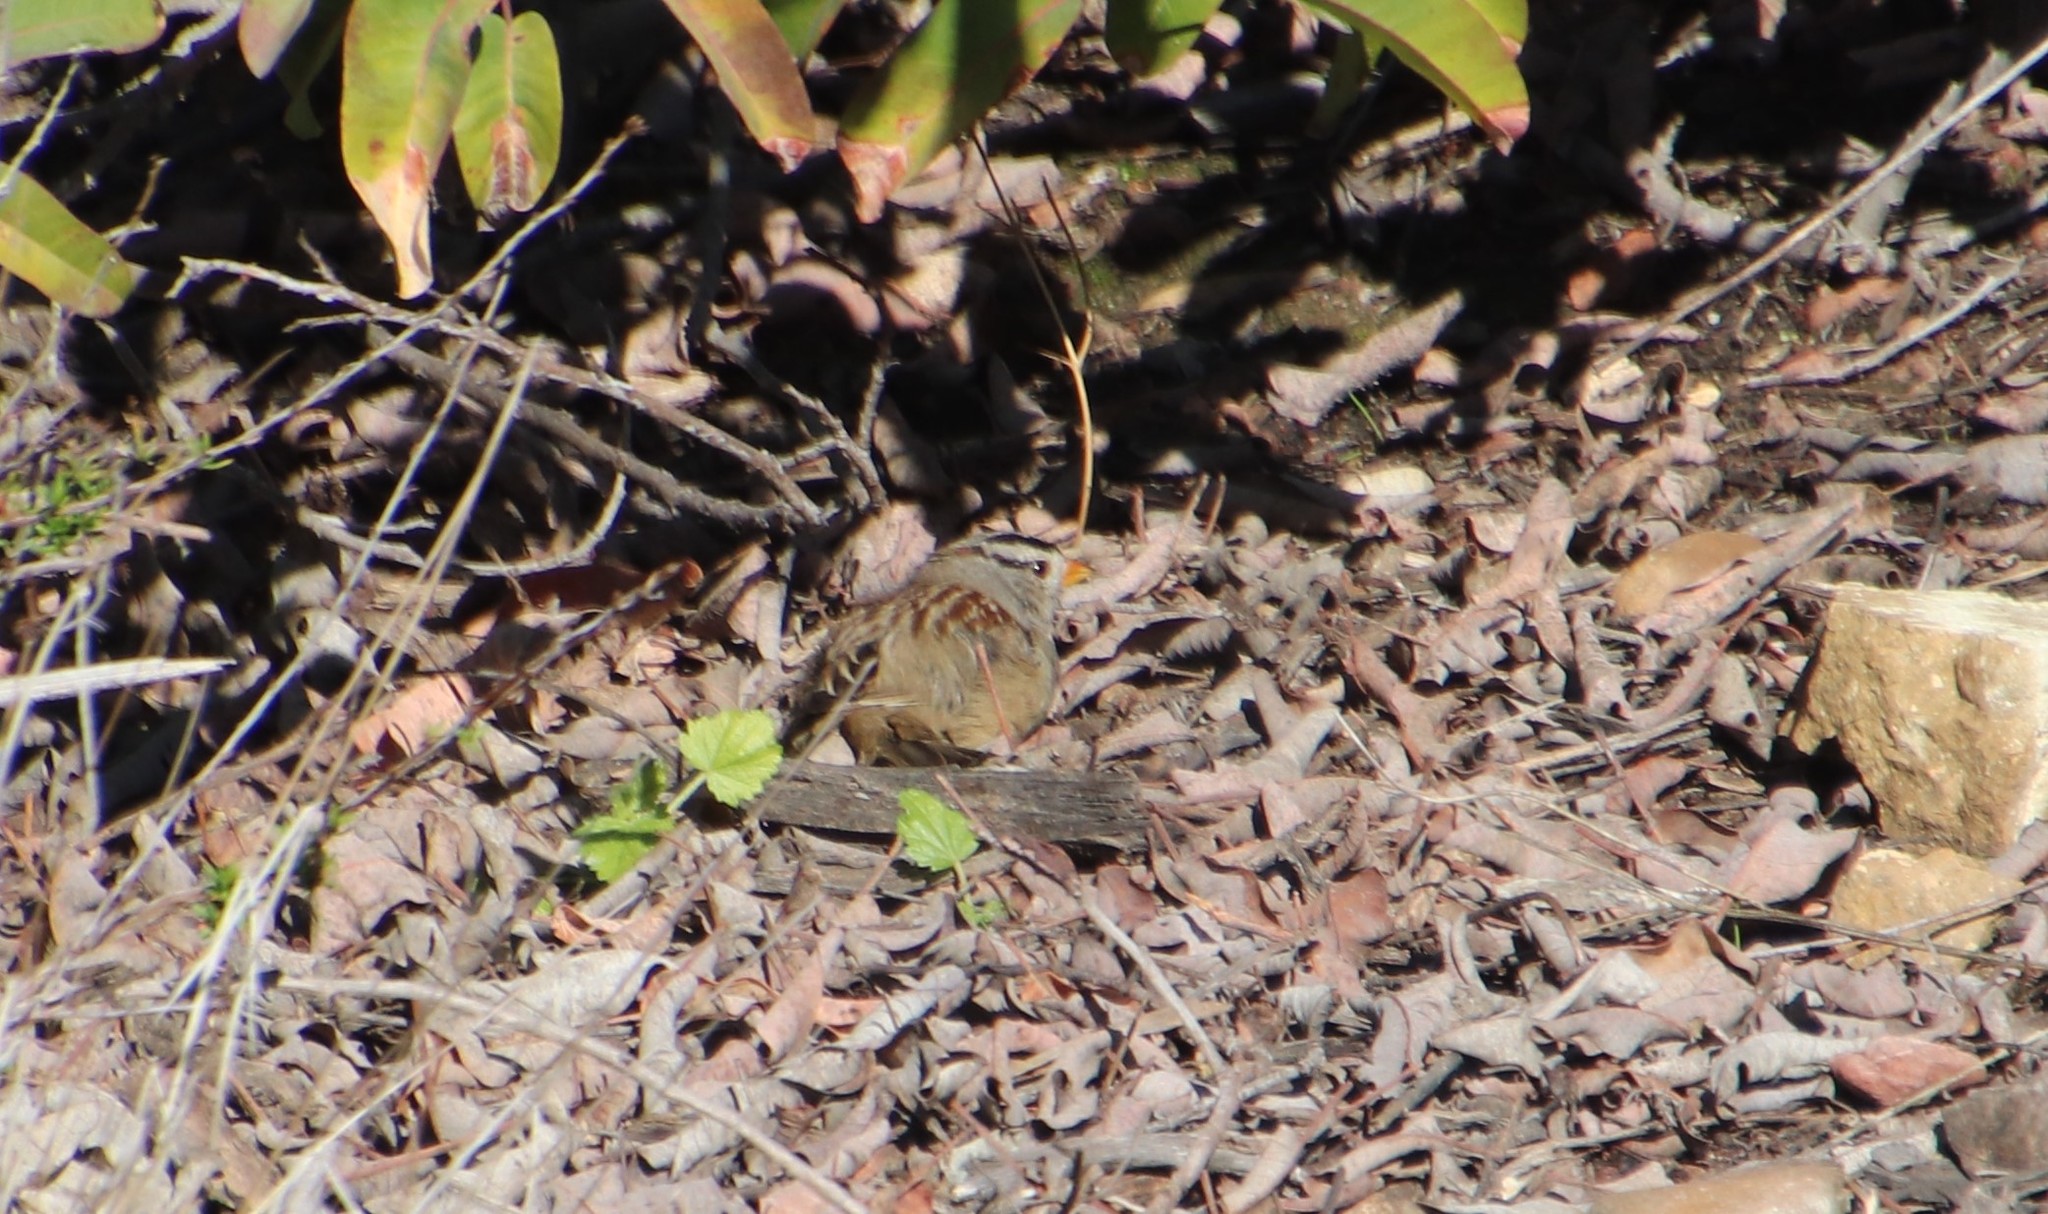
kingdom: Animalia
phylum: Chordata
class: Aves
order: Passeriformes
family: Passerellidae
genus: Zonotrichia
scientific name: Zonotrichia leucophrys
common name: White-crowned sparrow
